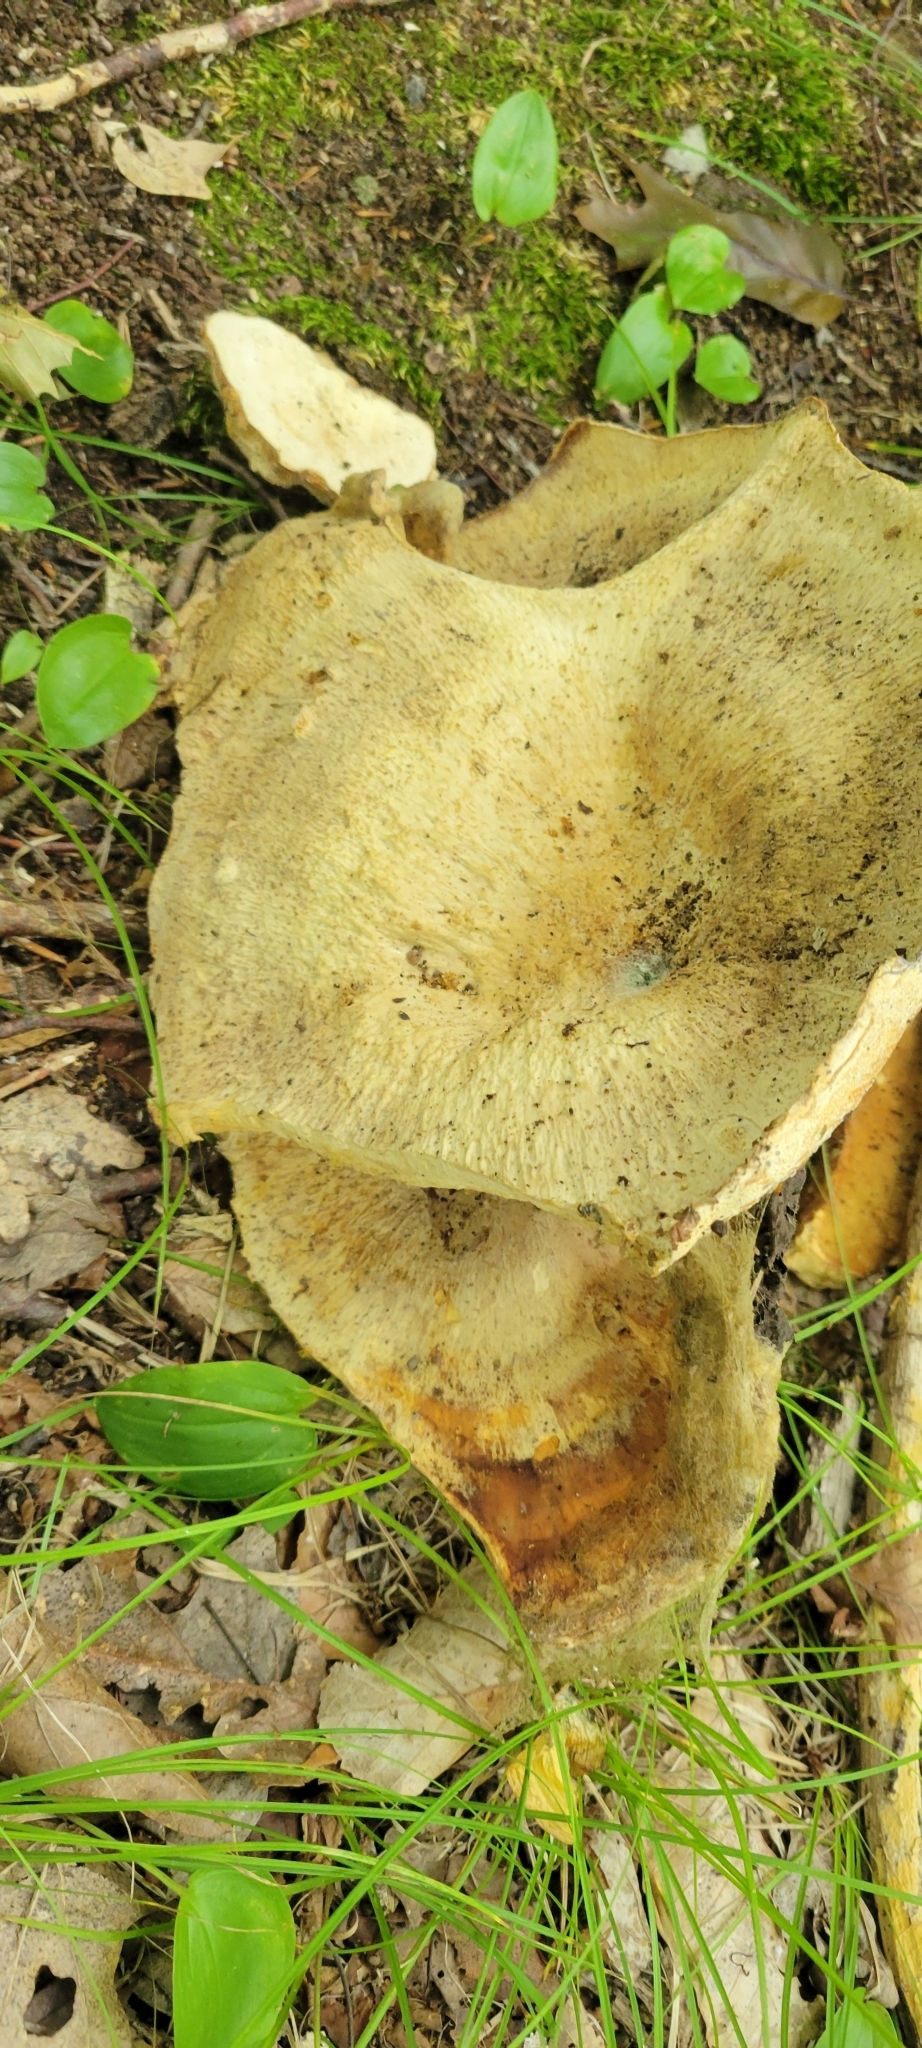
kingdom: Fungi
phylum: Basidiomycota
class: Agaricomycetes
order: Russulales
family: Bondarzewiaceae
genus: Bondarzewia
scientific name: Bondarzewia berkeleyi
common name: Berkeley's polypore
